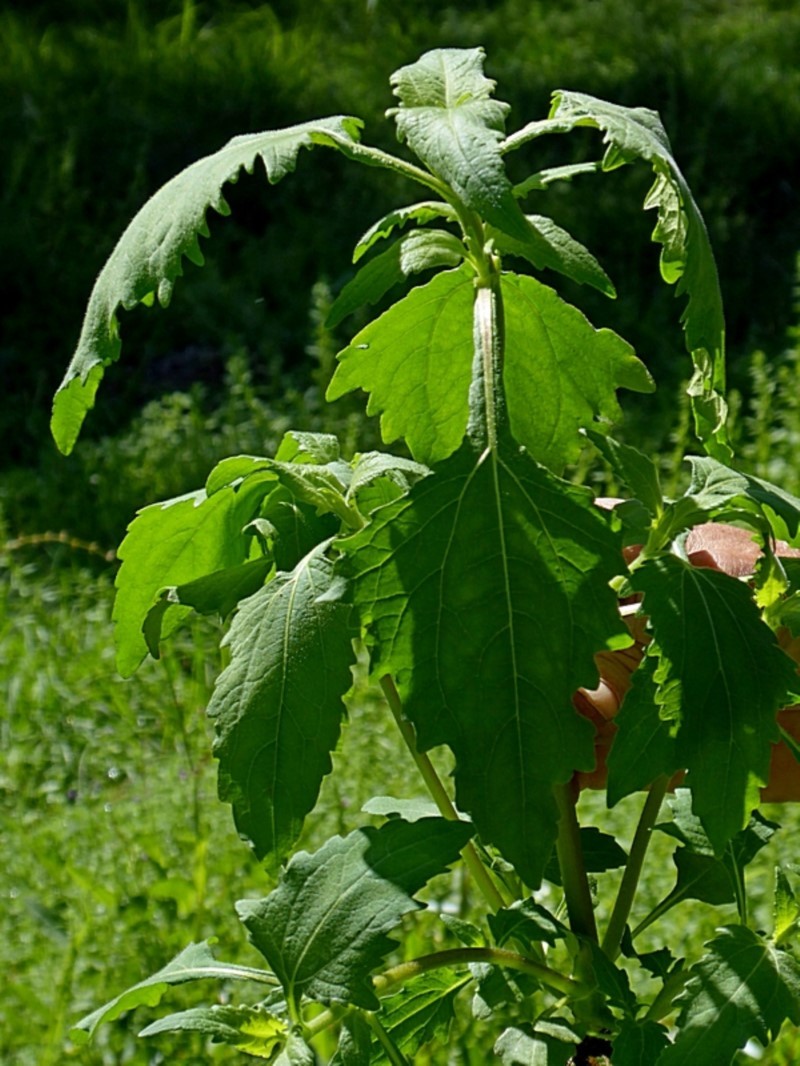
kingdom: Plantae
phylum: Tracheophyta
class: Magnoliopsida
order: Asterales
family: Asteraceae
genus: Sigesbeckia
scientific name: Sigesbeckia orientalis
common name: Eastern st paul's-wort
